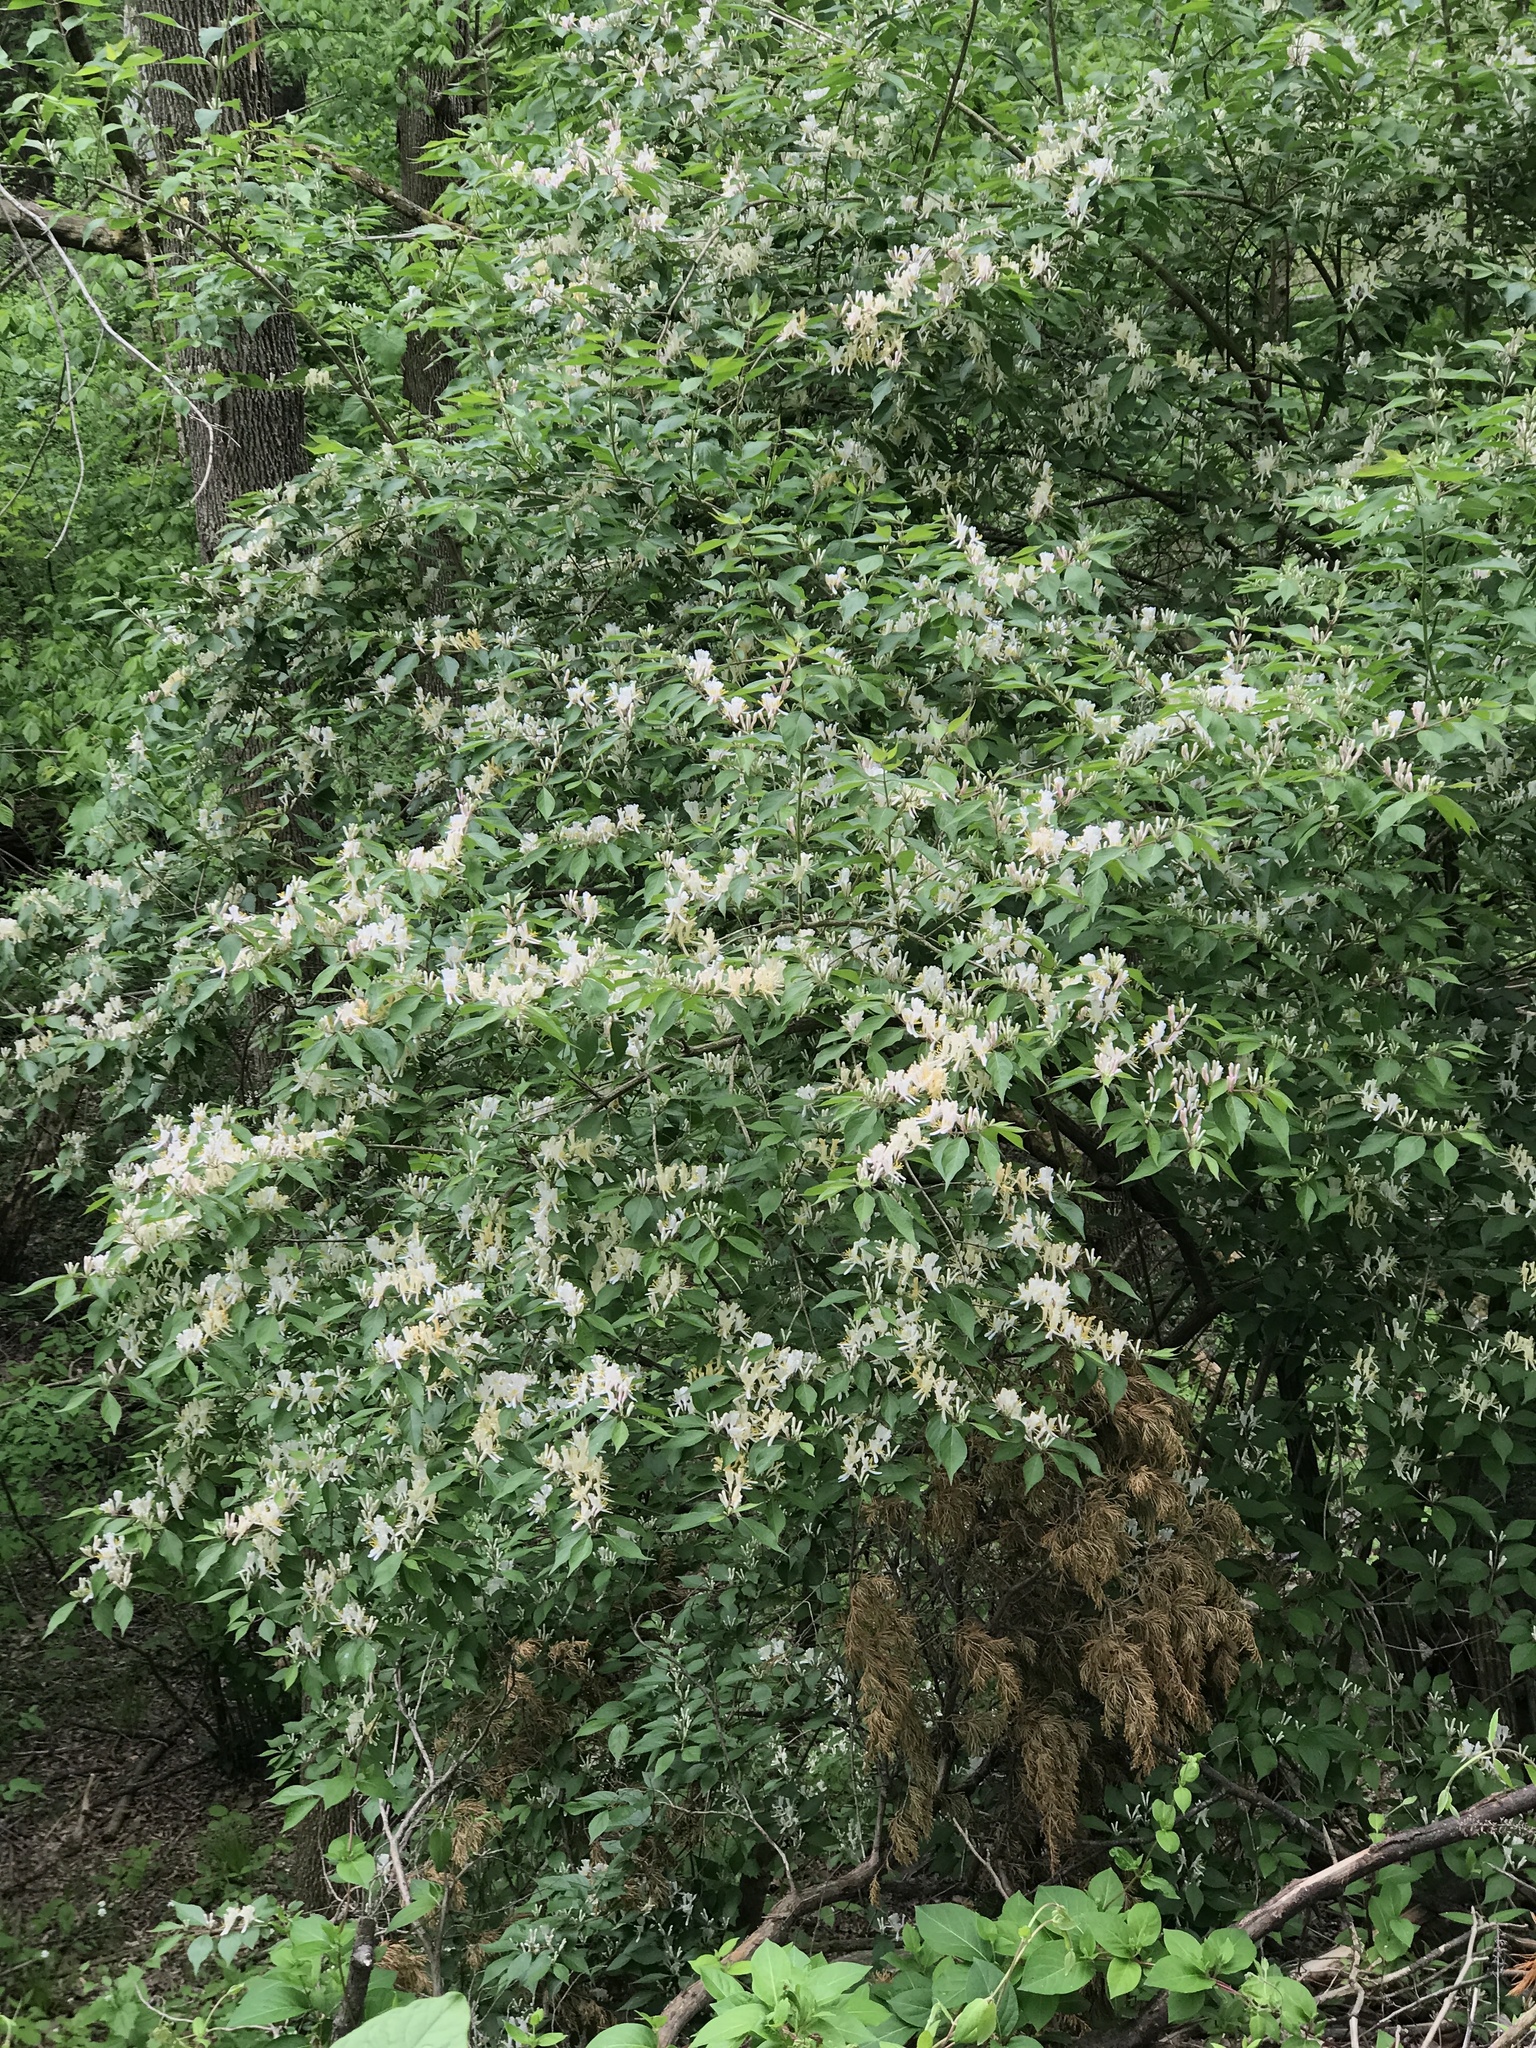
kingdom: Plantae
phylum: Tracheophyta
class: Magnoliopsida
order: Dipsacales
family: Caprifoliaceae
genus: Lonicera
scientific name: Lonicera maackii
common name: Amur honeysuckle
